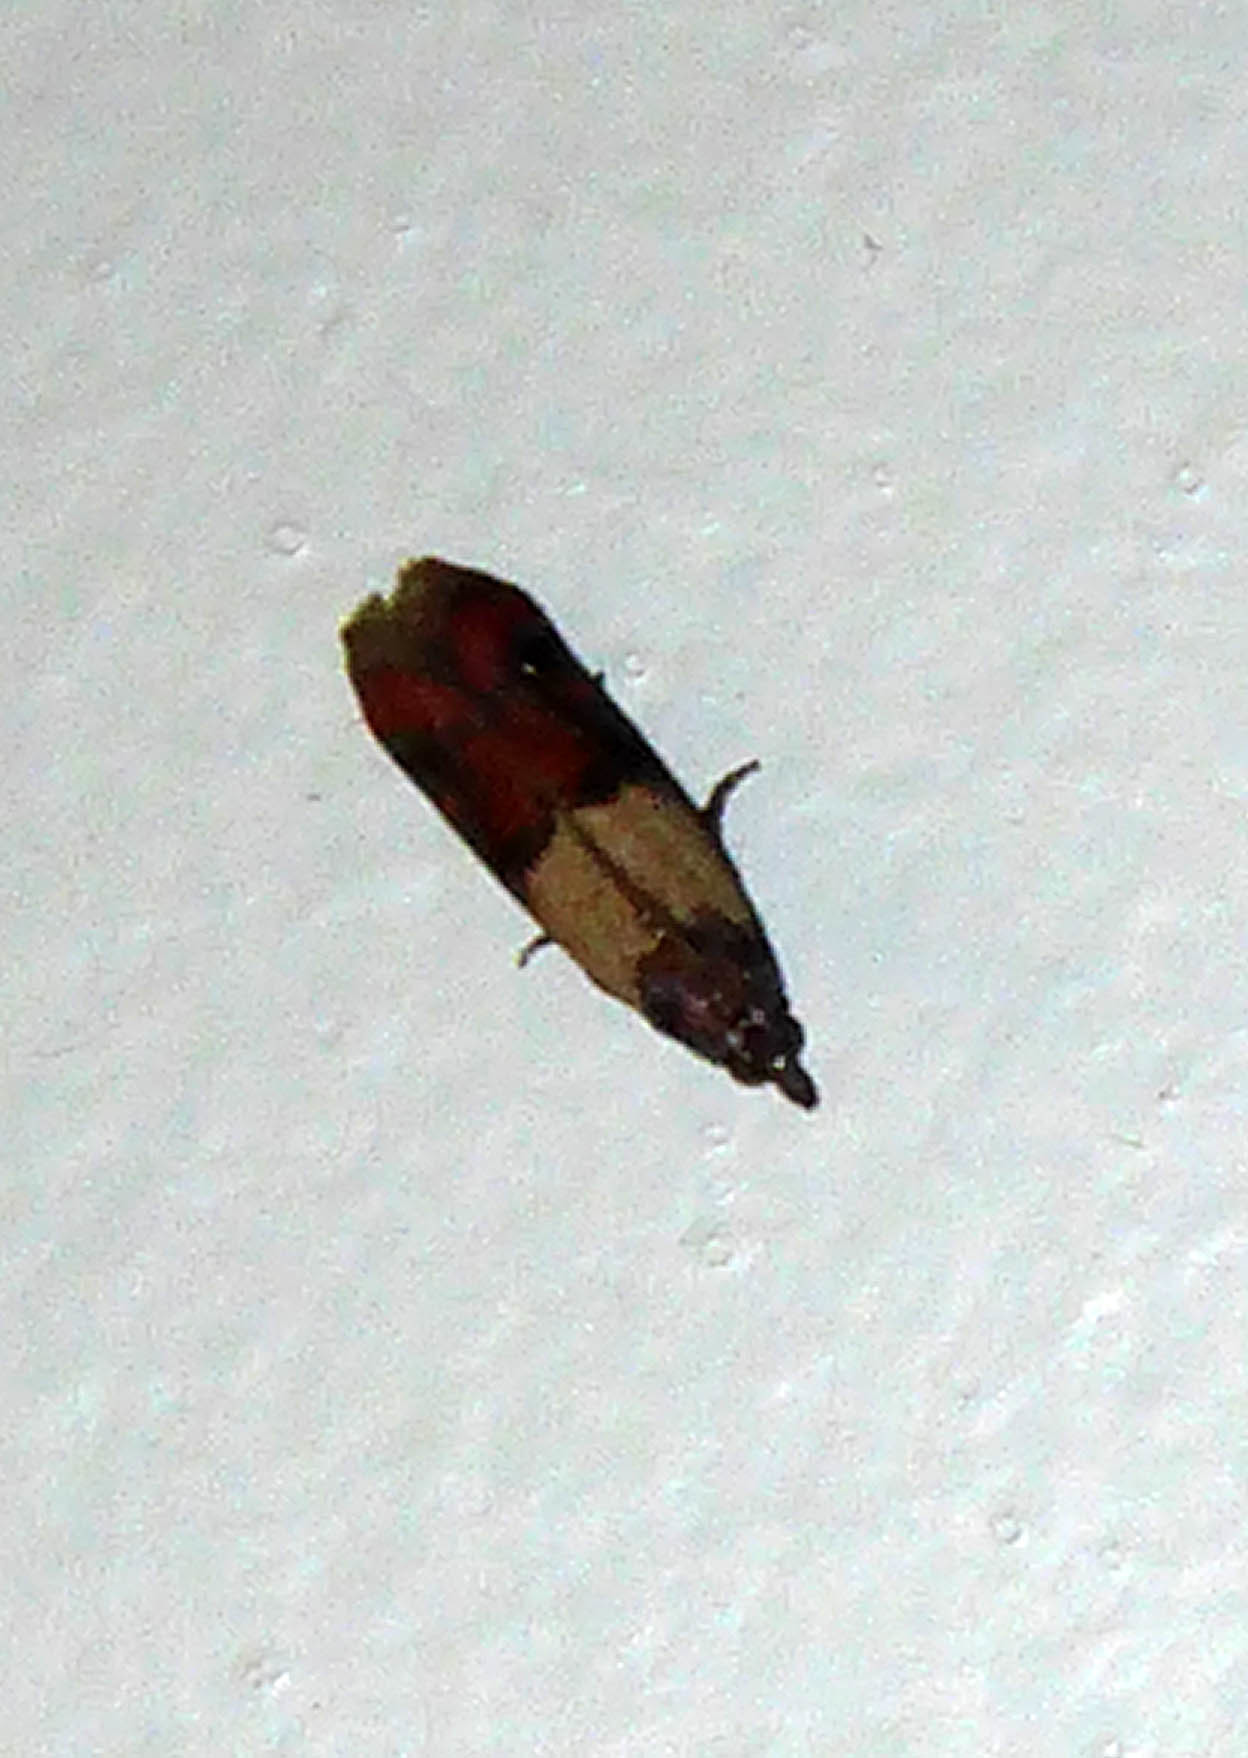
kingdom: Animalia
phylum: Arthropoda
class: Insecta
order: Lepidoptera
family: Pyralidae
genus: Plodia
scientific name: Plodia interpunctella
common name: Indian meal moth
